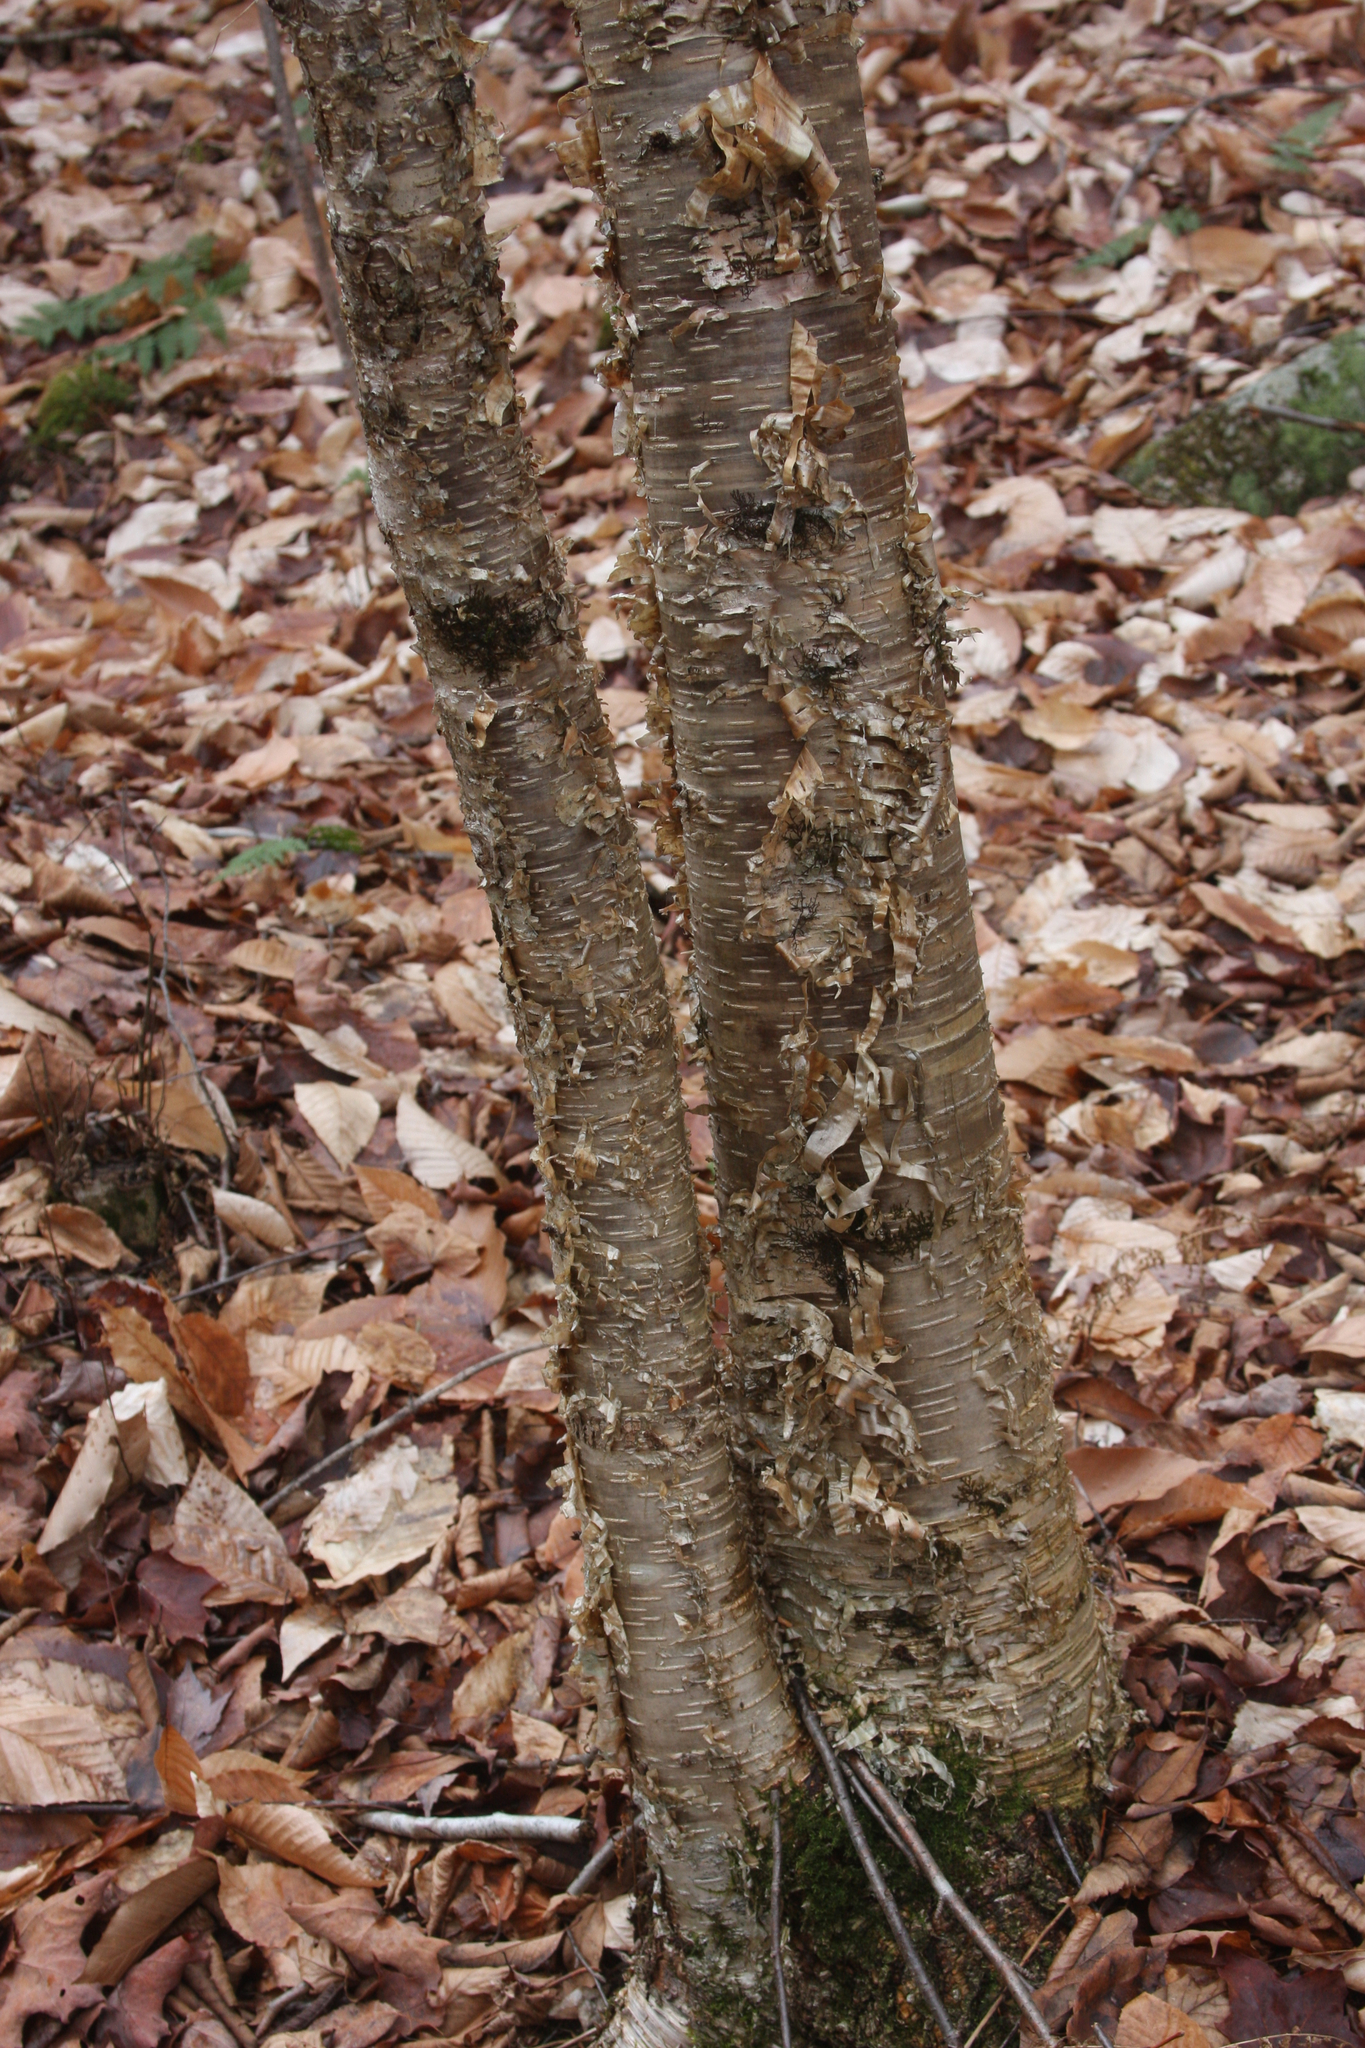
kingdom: Plantae
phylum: Tracheophyta
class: Magnoliopsida
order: Fagales
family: Betulaceae
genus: Betula
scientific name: Betula alleghaniensis
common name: Yellow birch
